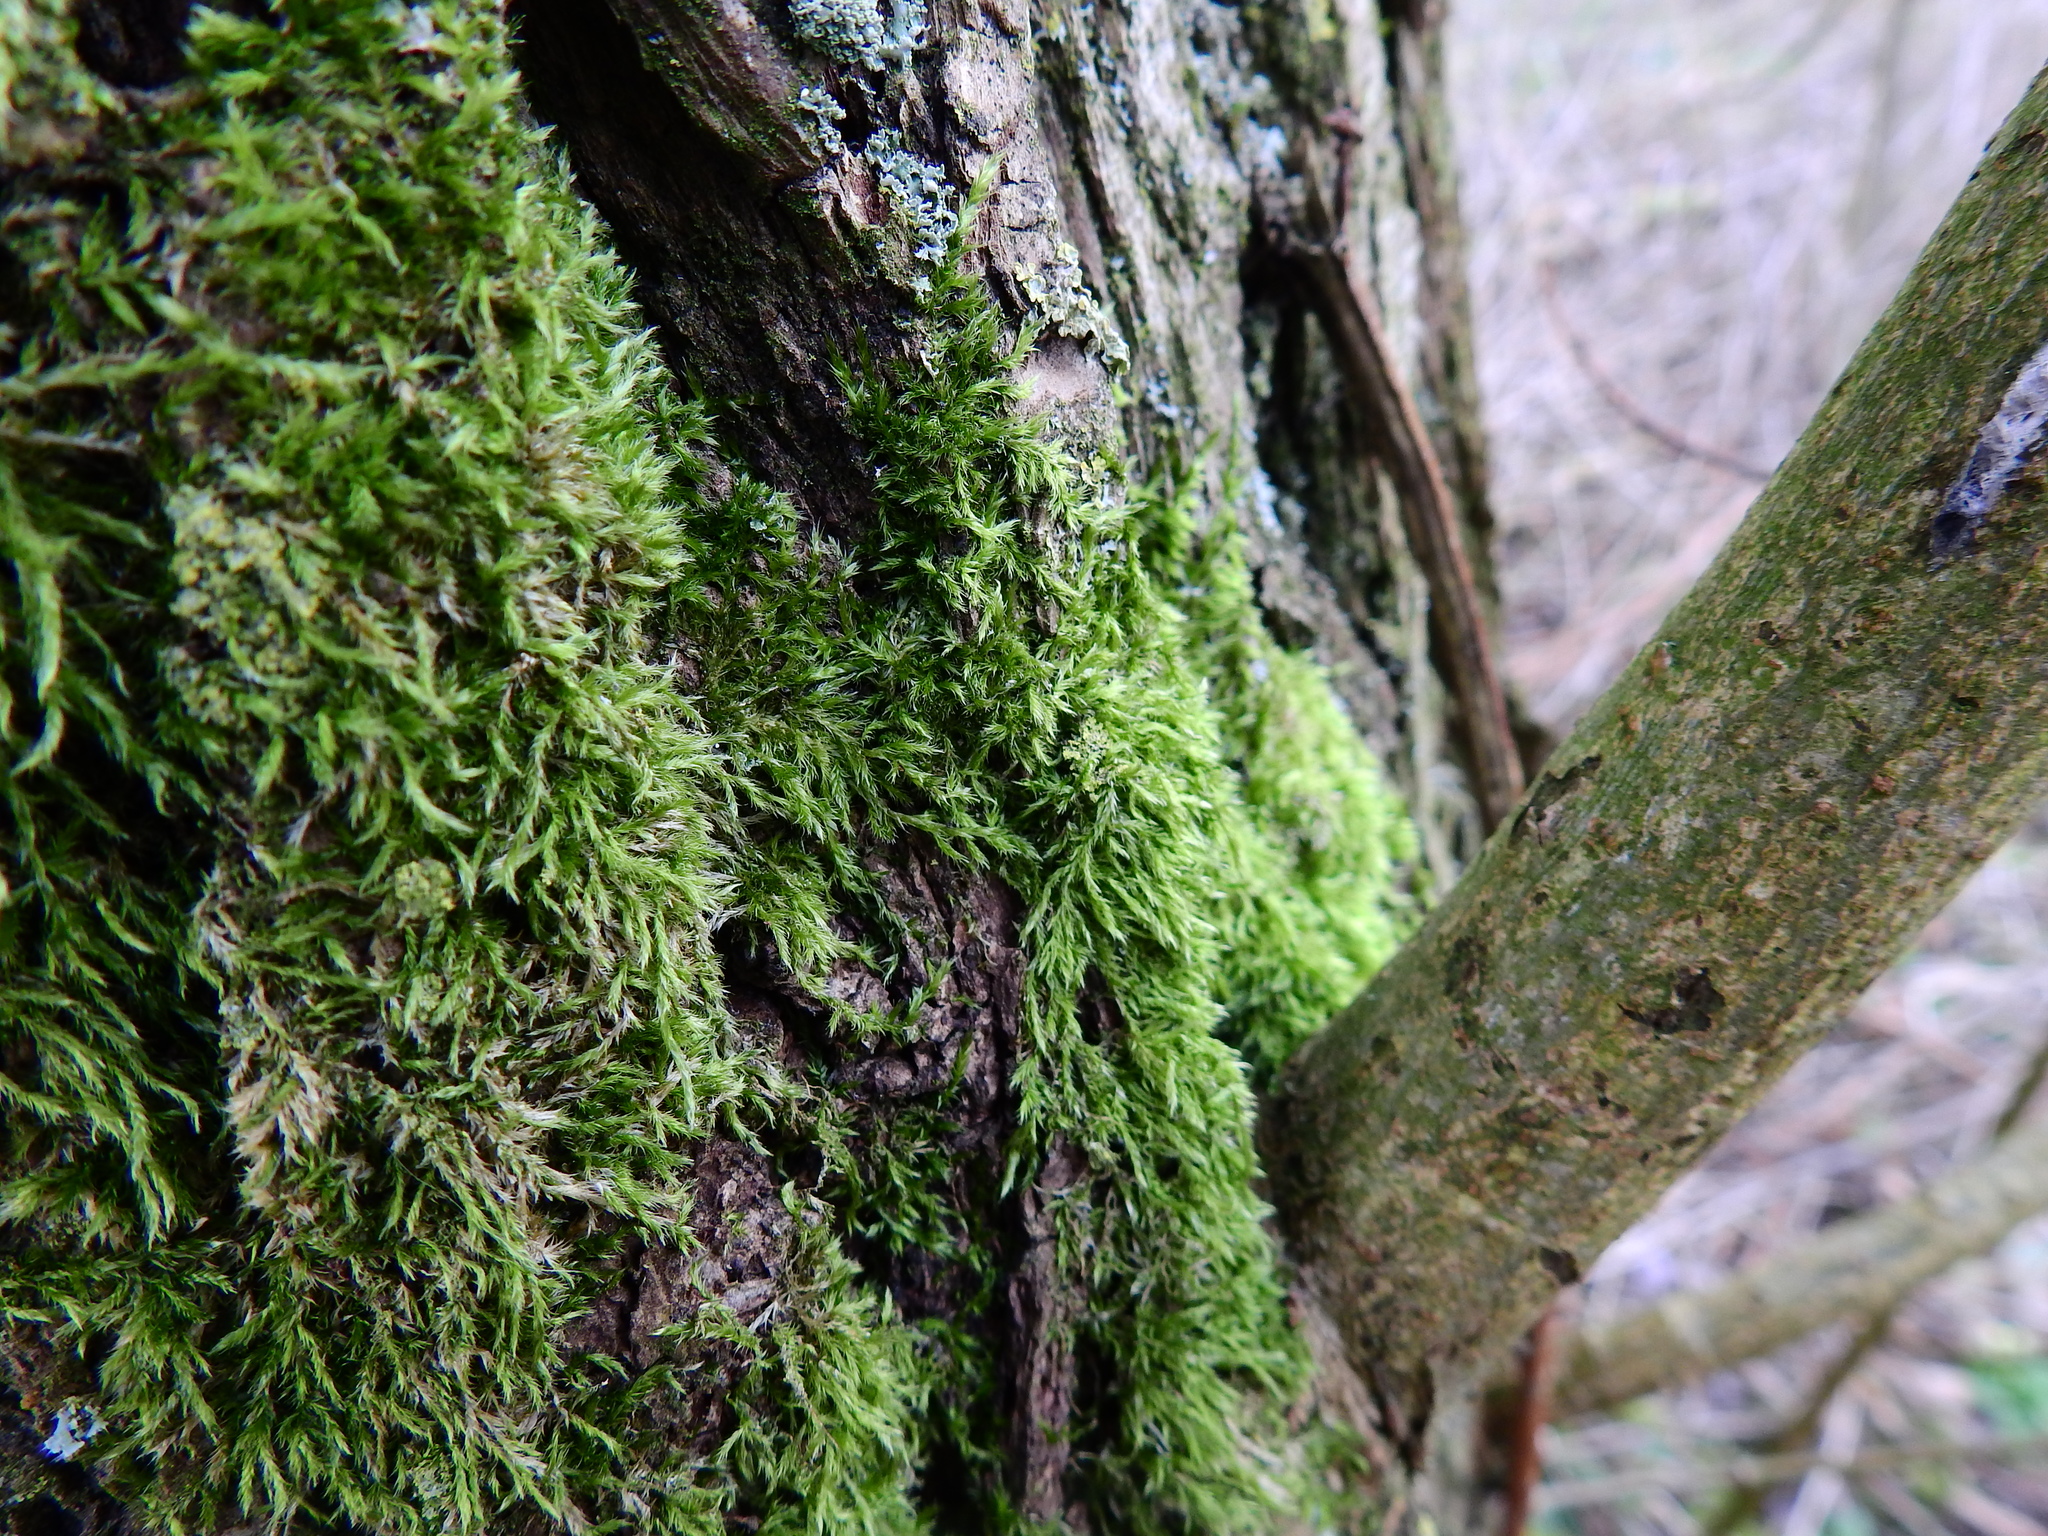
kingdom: Plantae
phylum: Bryophyta
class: Bryopsida
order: Hypnales
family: Hypnaceae
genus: Hypnum
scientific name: Hypnum cupressiforme
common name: Cypress-leaved plait-moss
